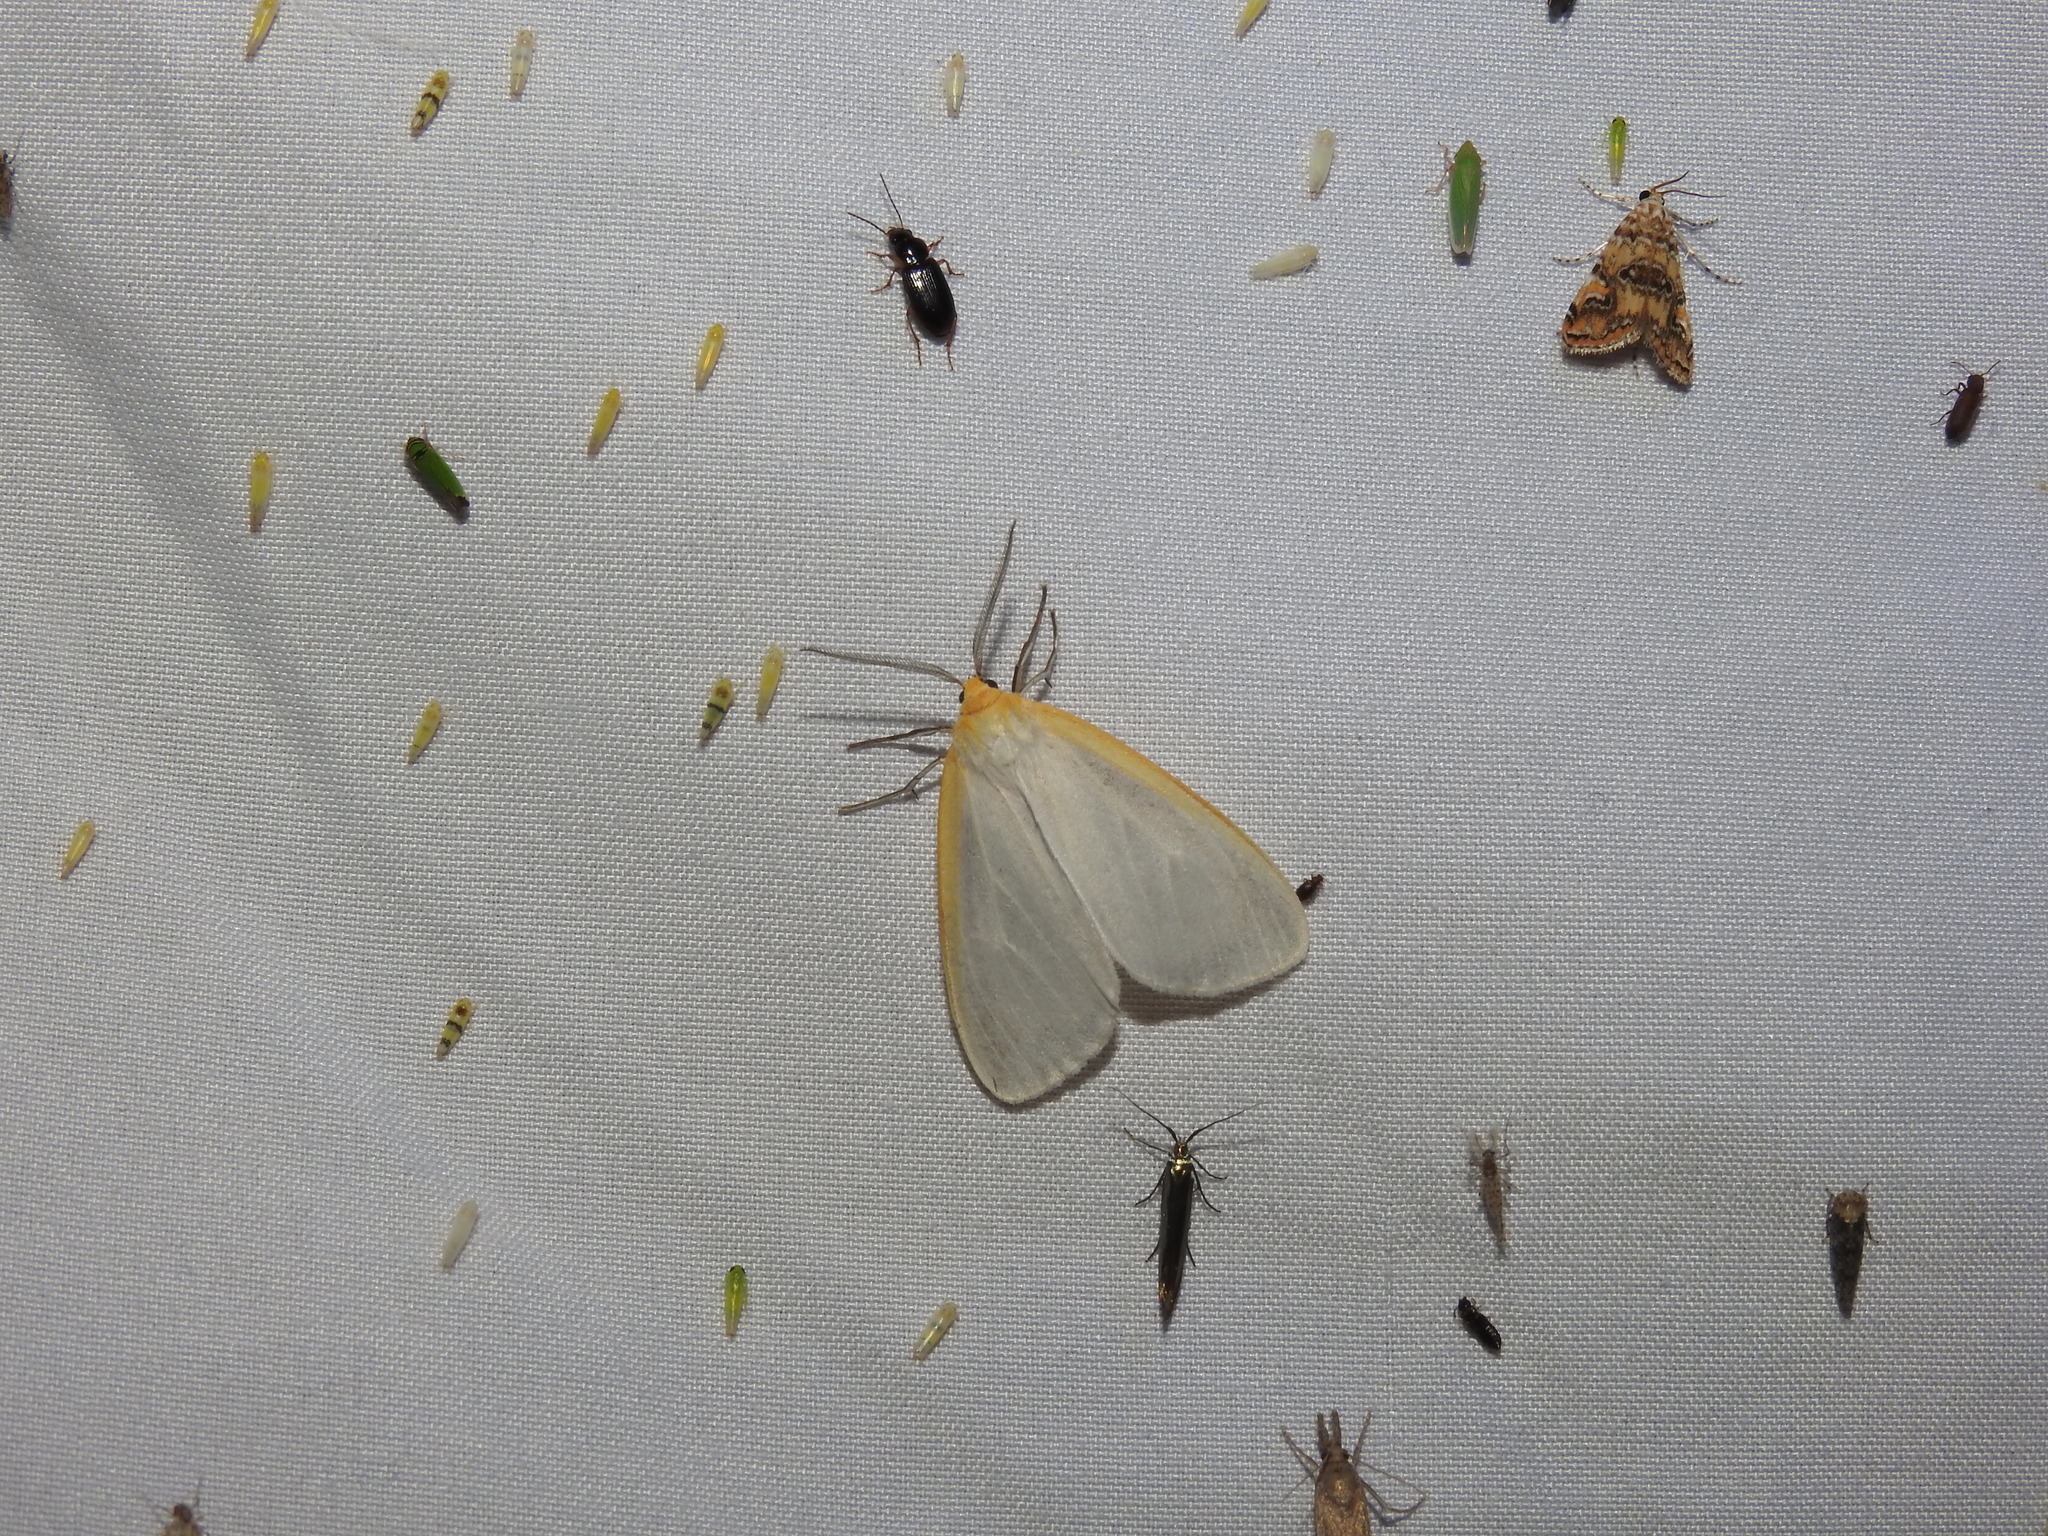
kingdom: Animalia
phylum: Arthropoda
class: Insecta
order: Lepidoptera
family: Erebidae
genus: Cycnia
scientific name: Cycnia tenera
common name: Delicate cycnia moth
